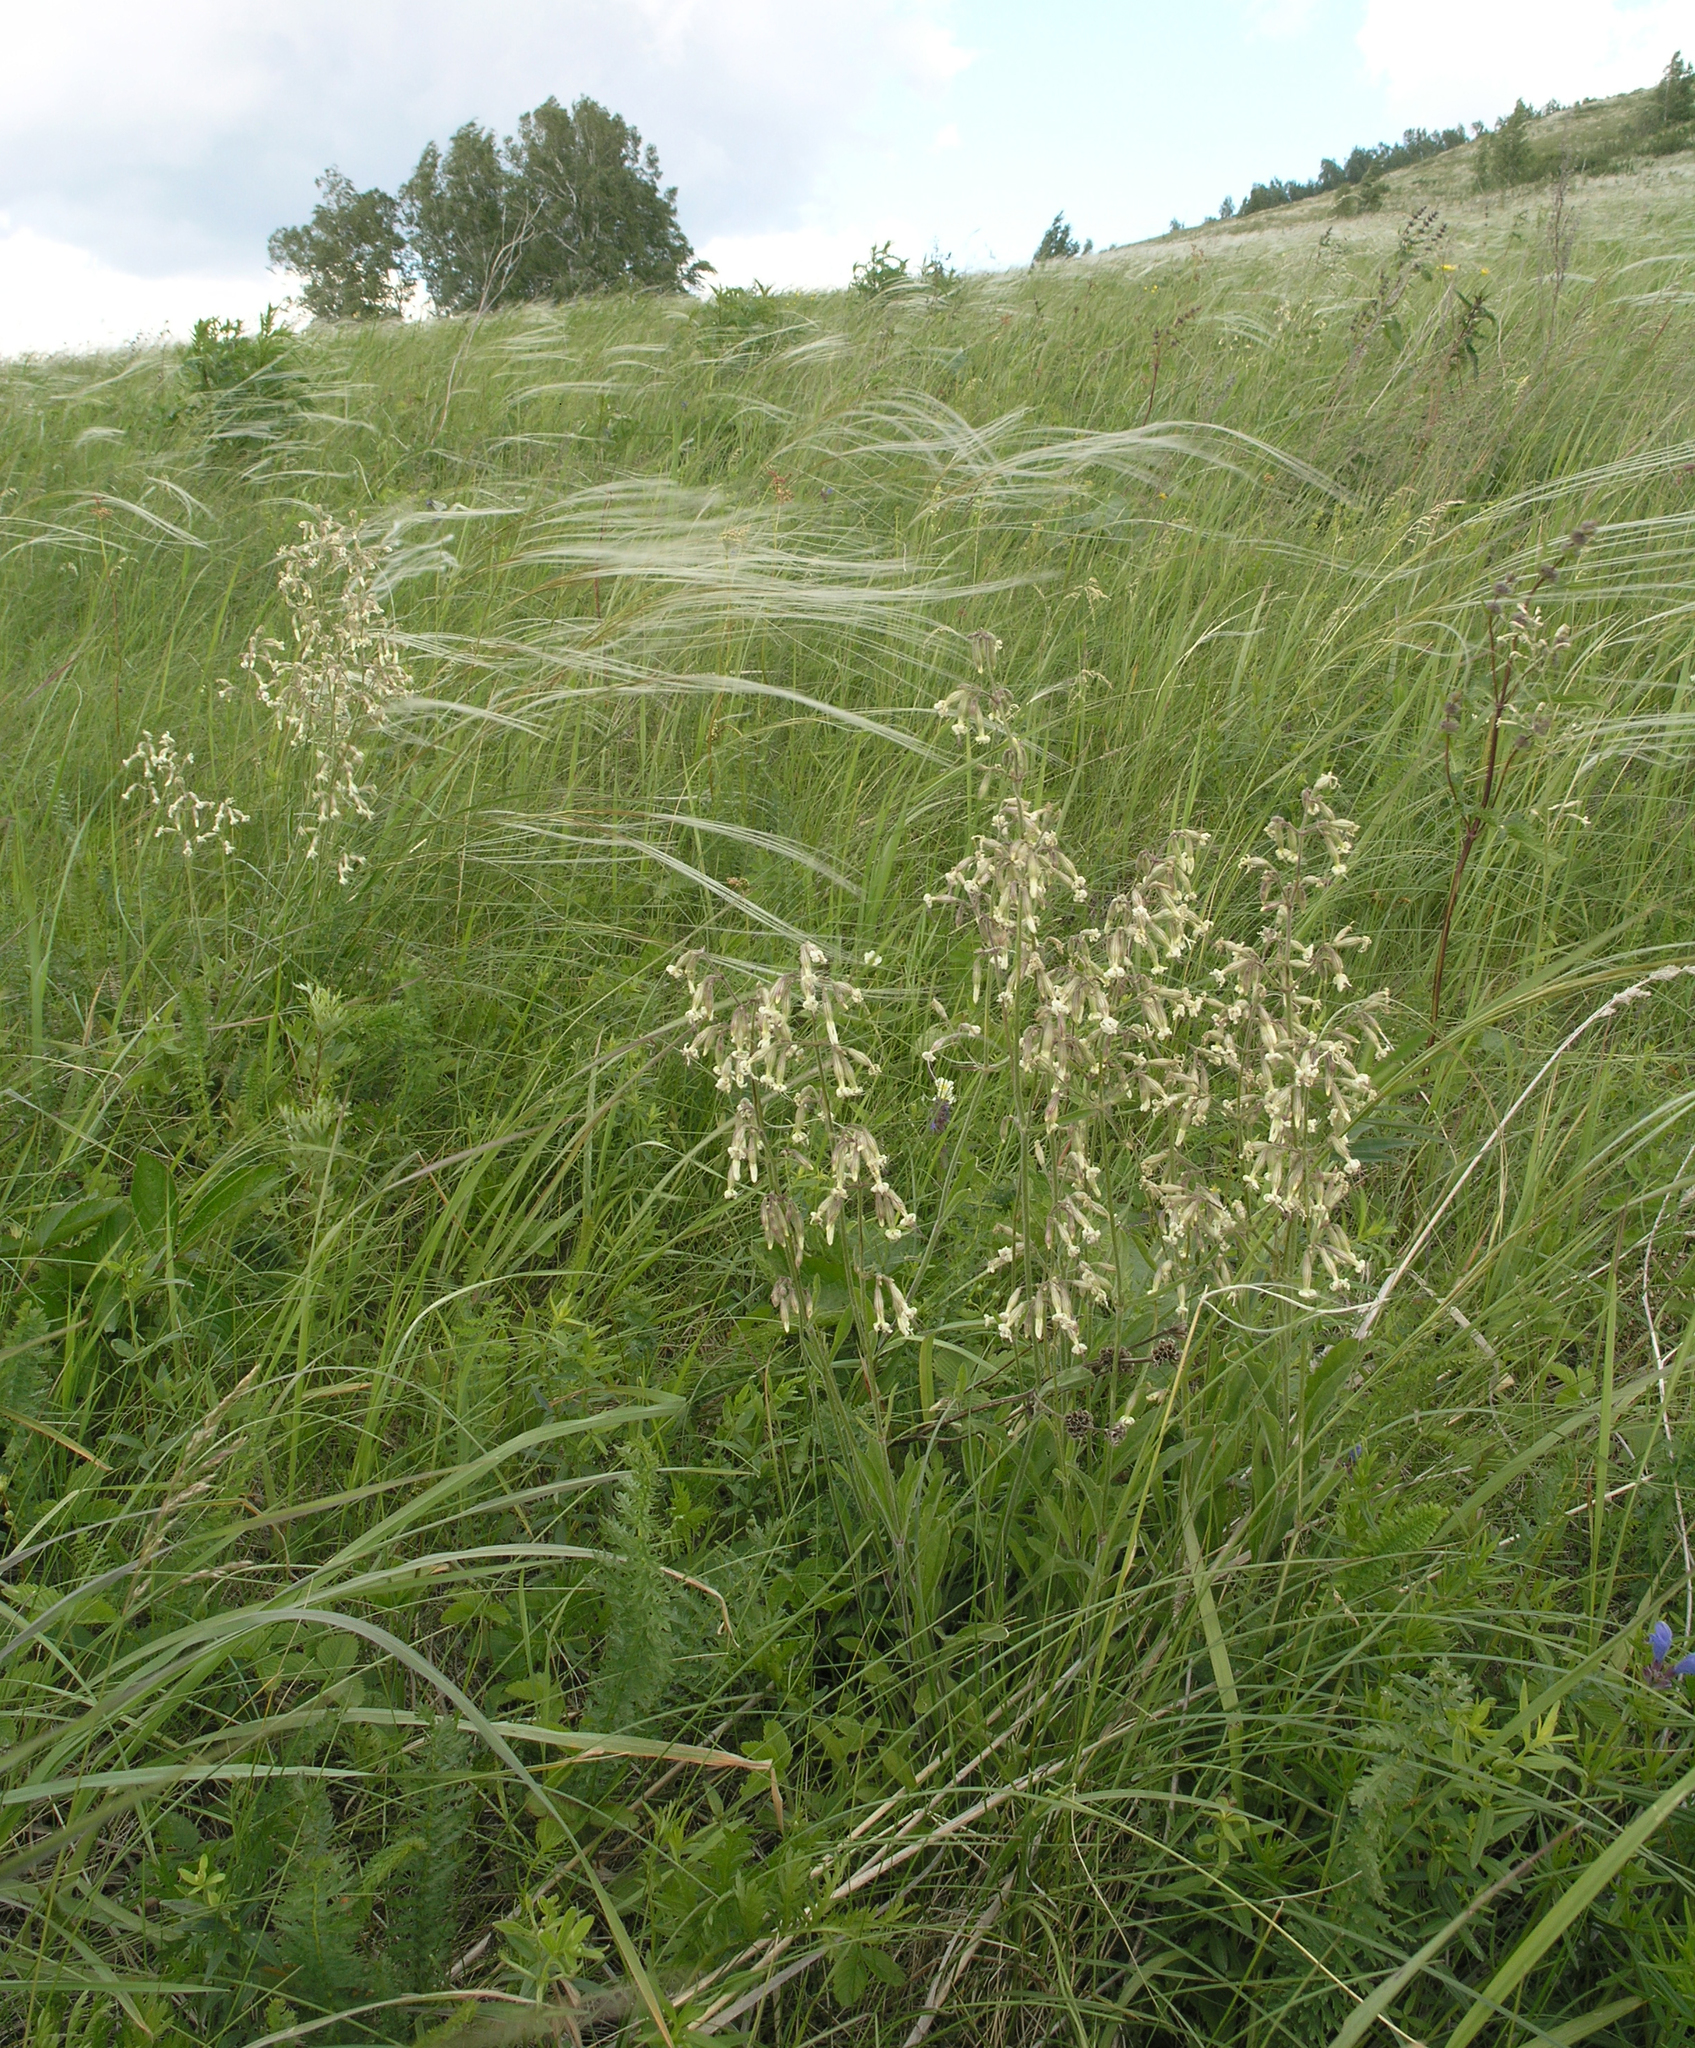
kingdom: Plantae
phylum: Tracheophyta
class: Magnoliopsida
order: Caryophyllales
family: Caryophyllaceae
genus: Silene
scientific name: Silene nutans
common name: Nottingham catchfly
